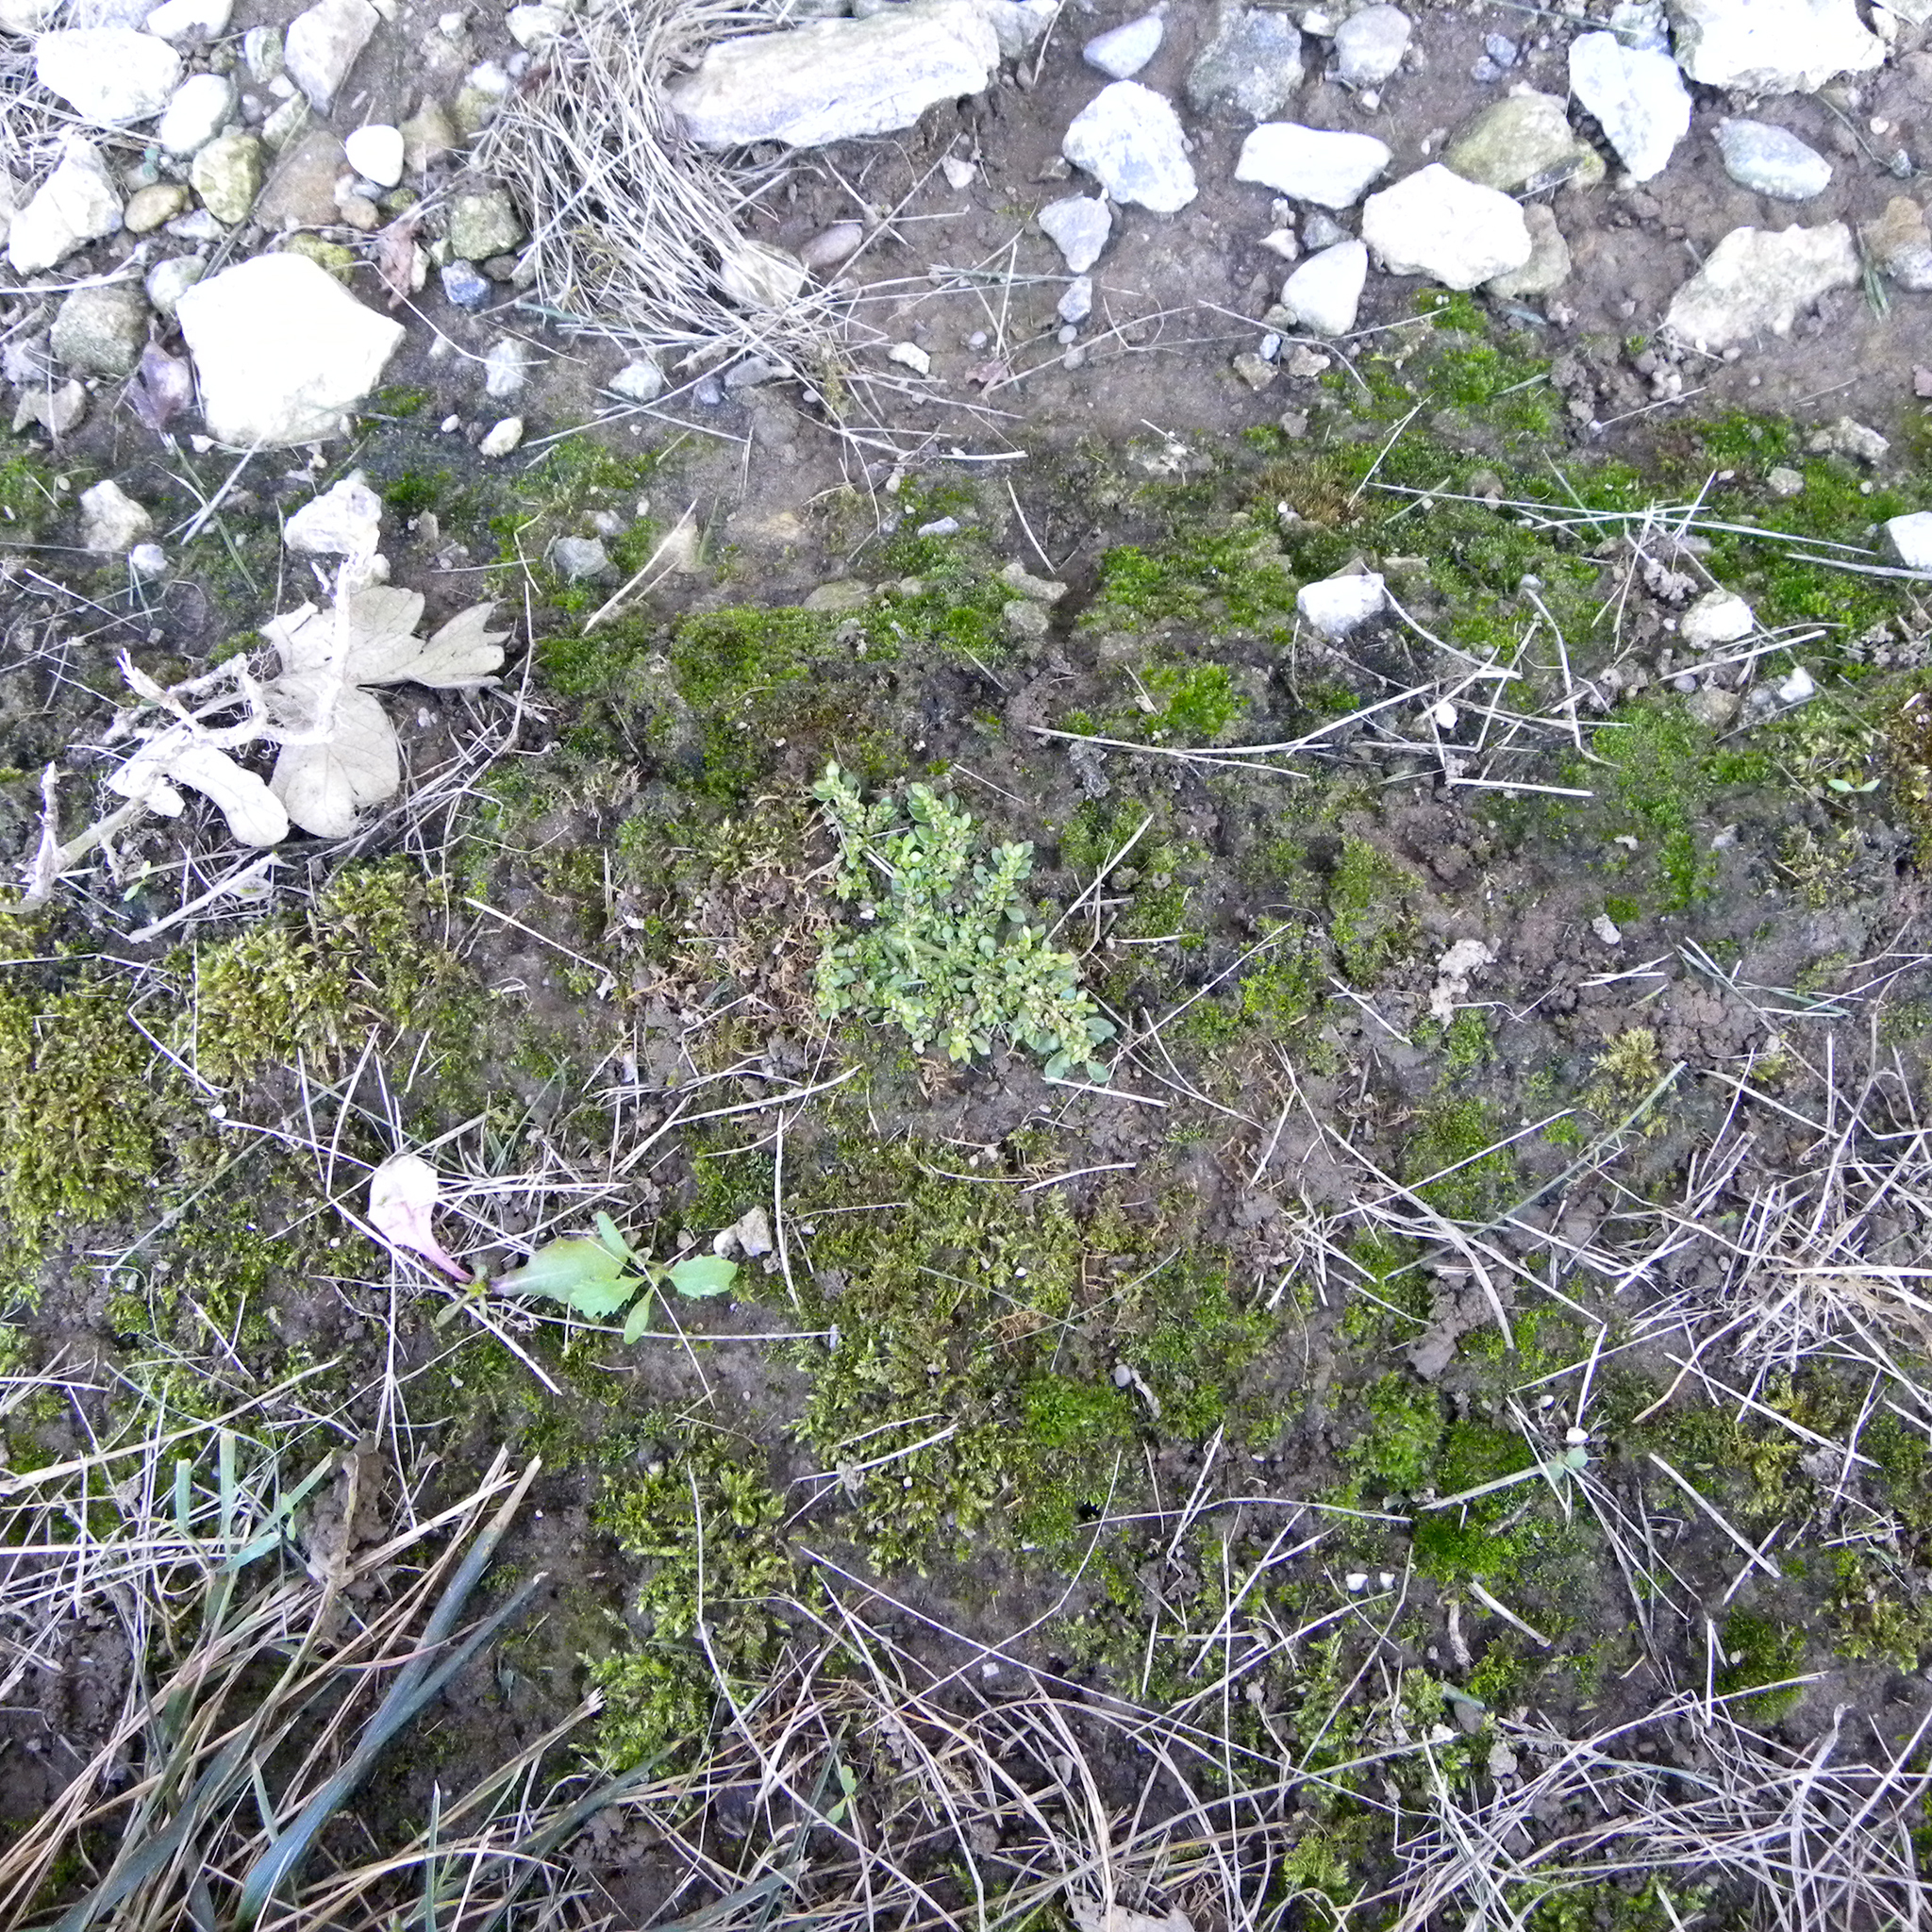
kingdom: Plantae
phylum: Tracheophyta
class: Magnoliopsida
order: Rosales
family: Urticaceae
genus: Pilea
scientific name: Pilea microphylla
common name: Artillery-plant
